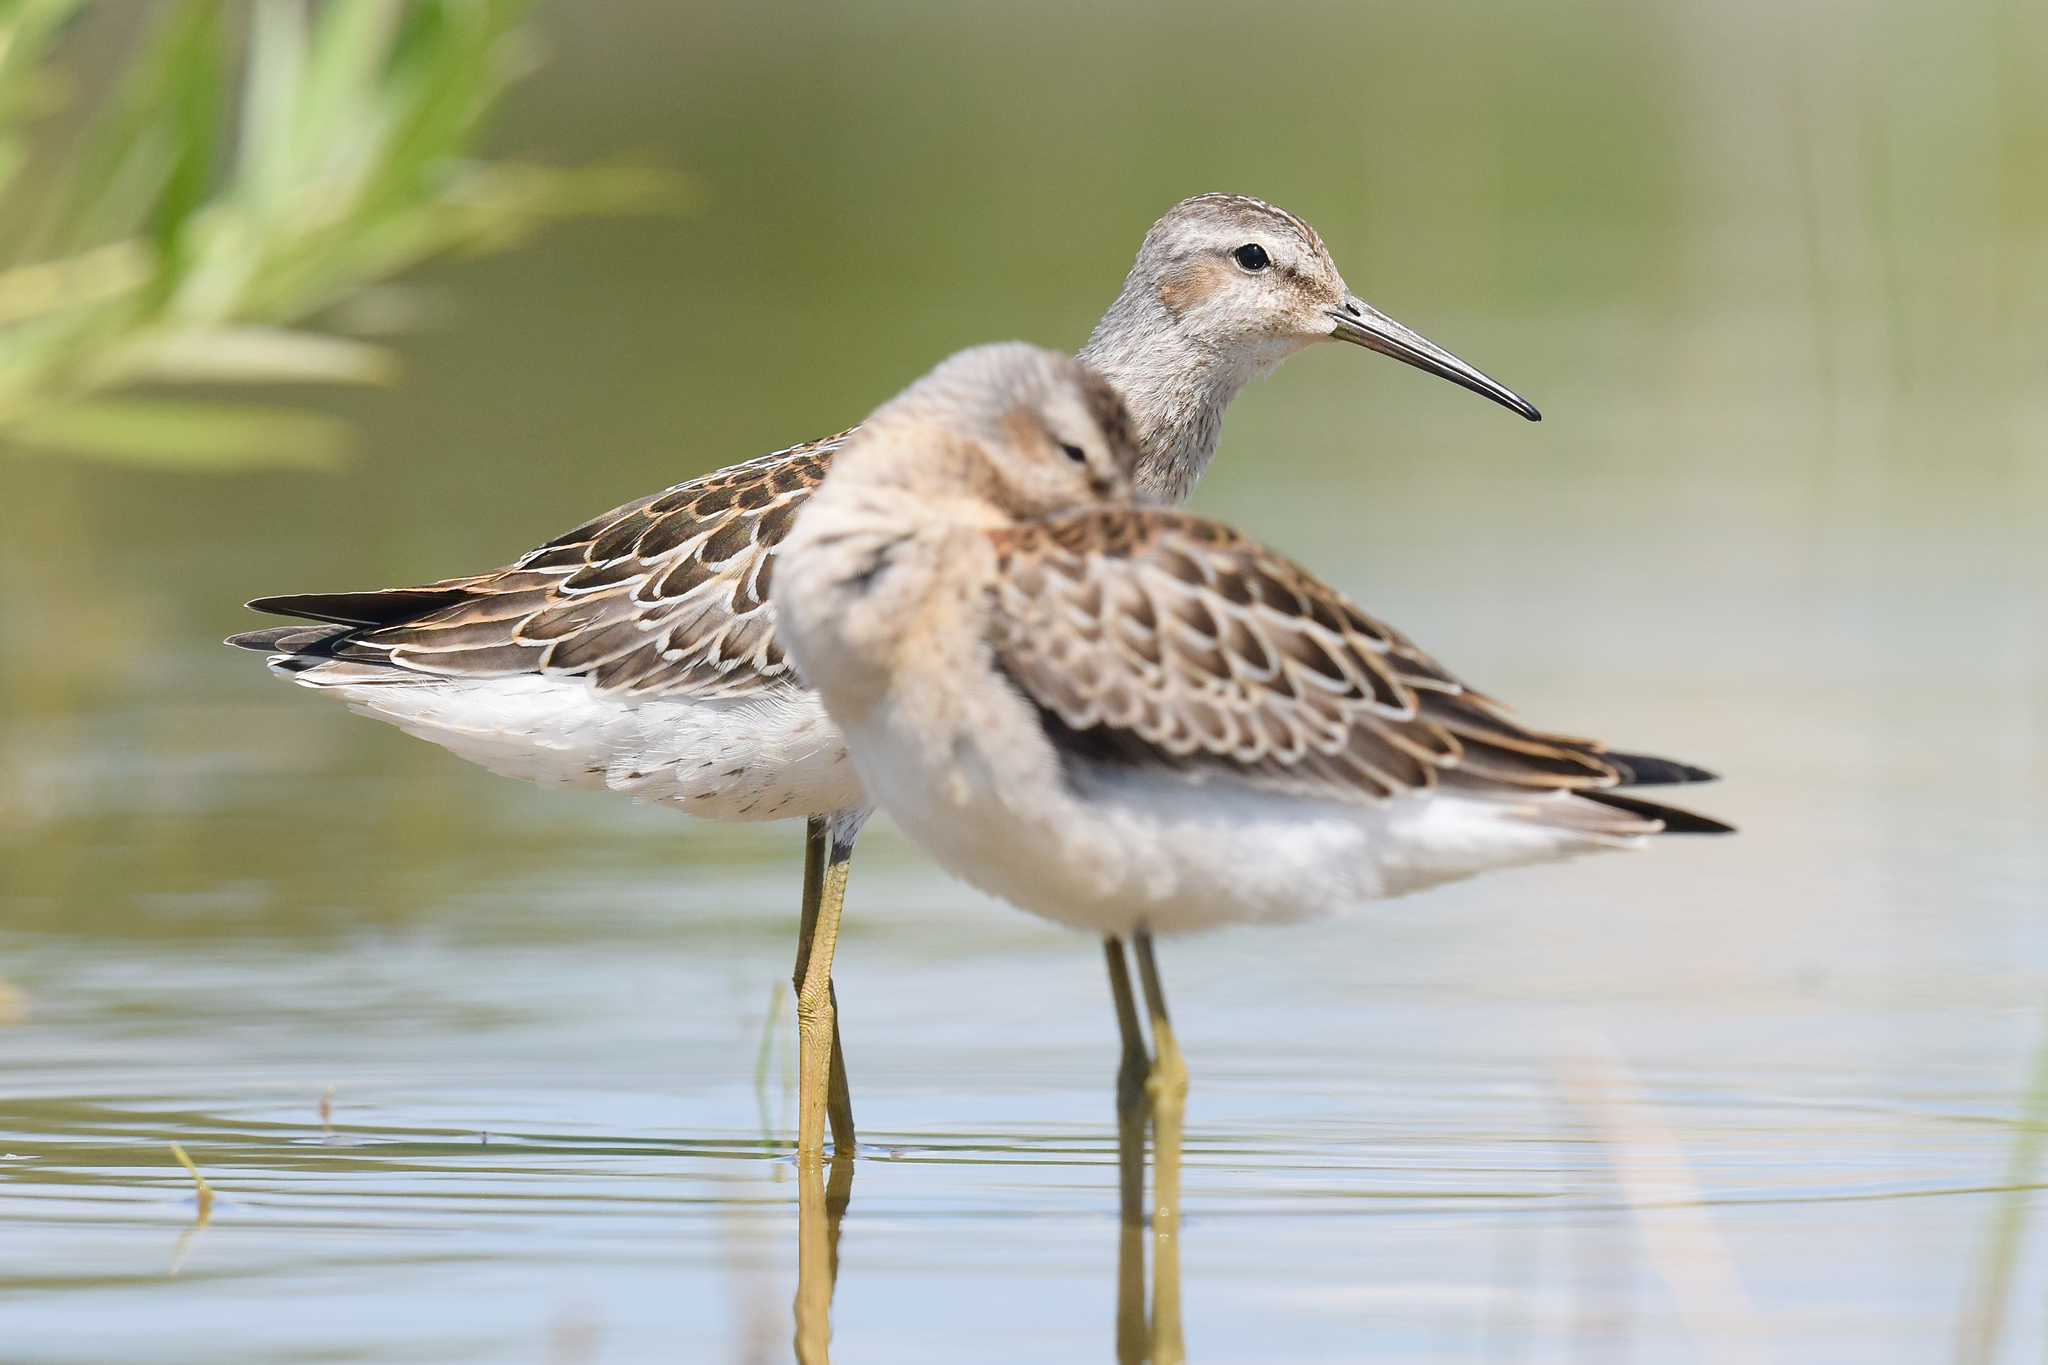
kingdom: Animalia
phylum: Chordata
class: Aves
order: Charadriiformes
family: Scolopacidae
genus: Calidris
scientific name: Calidris himantopus
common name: Stilt sandpiper
